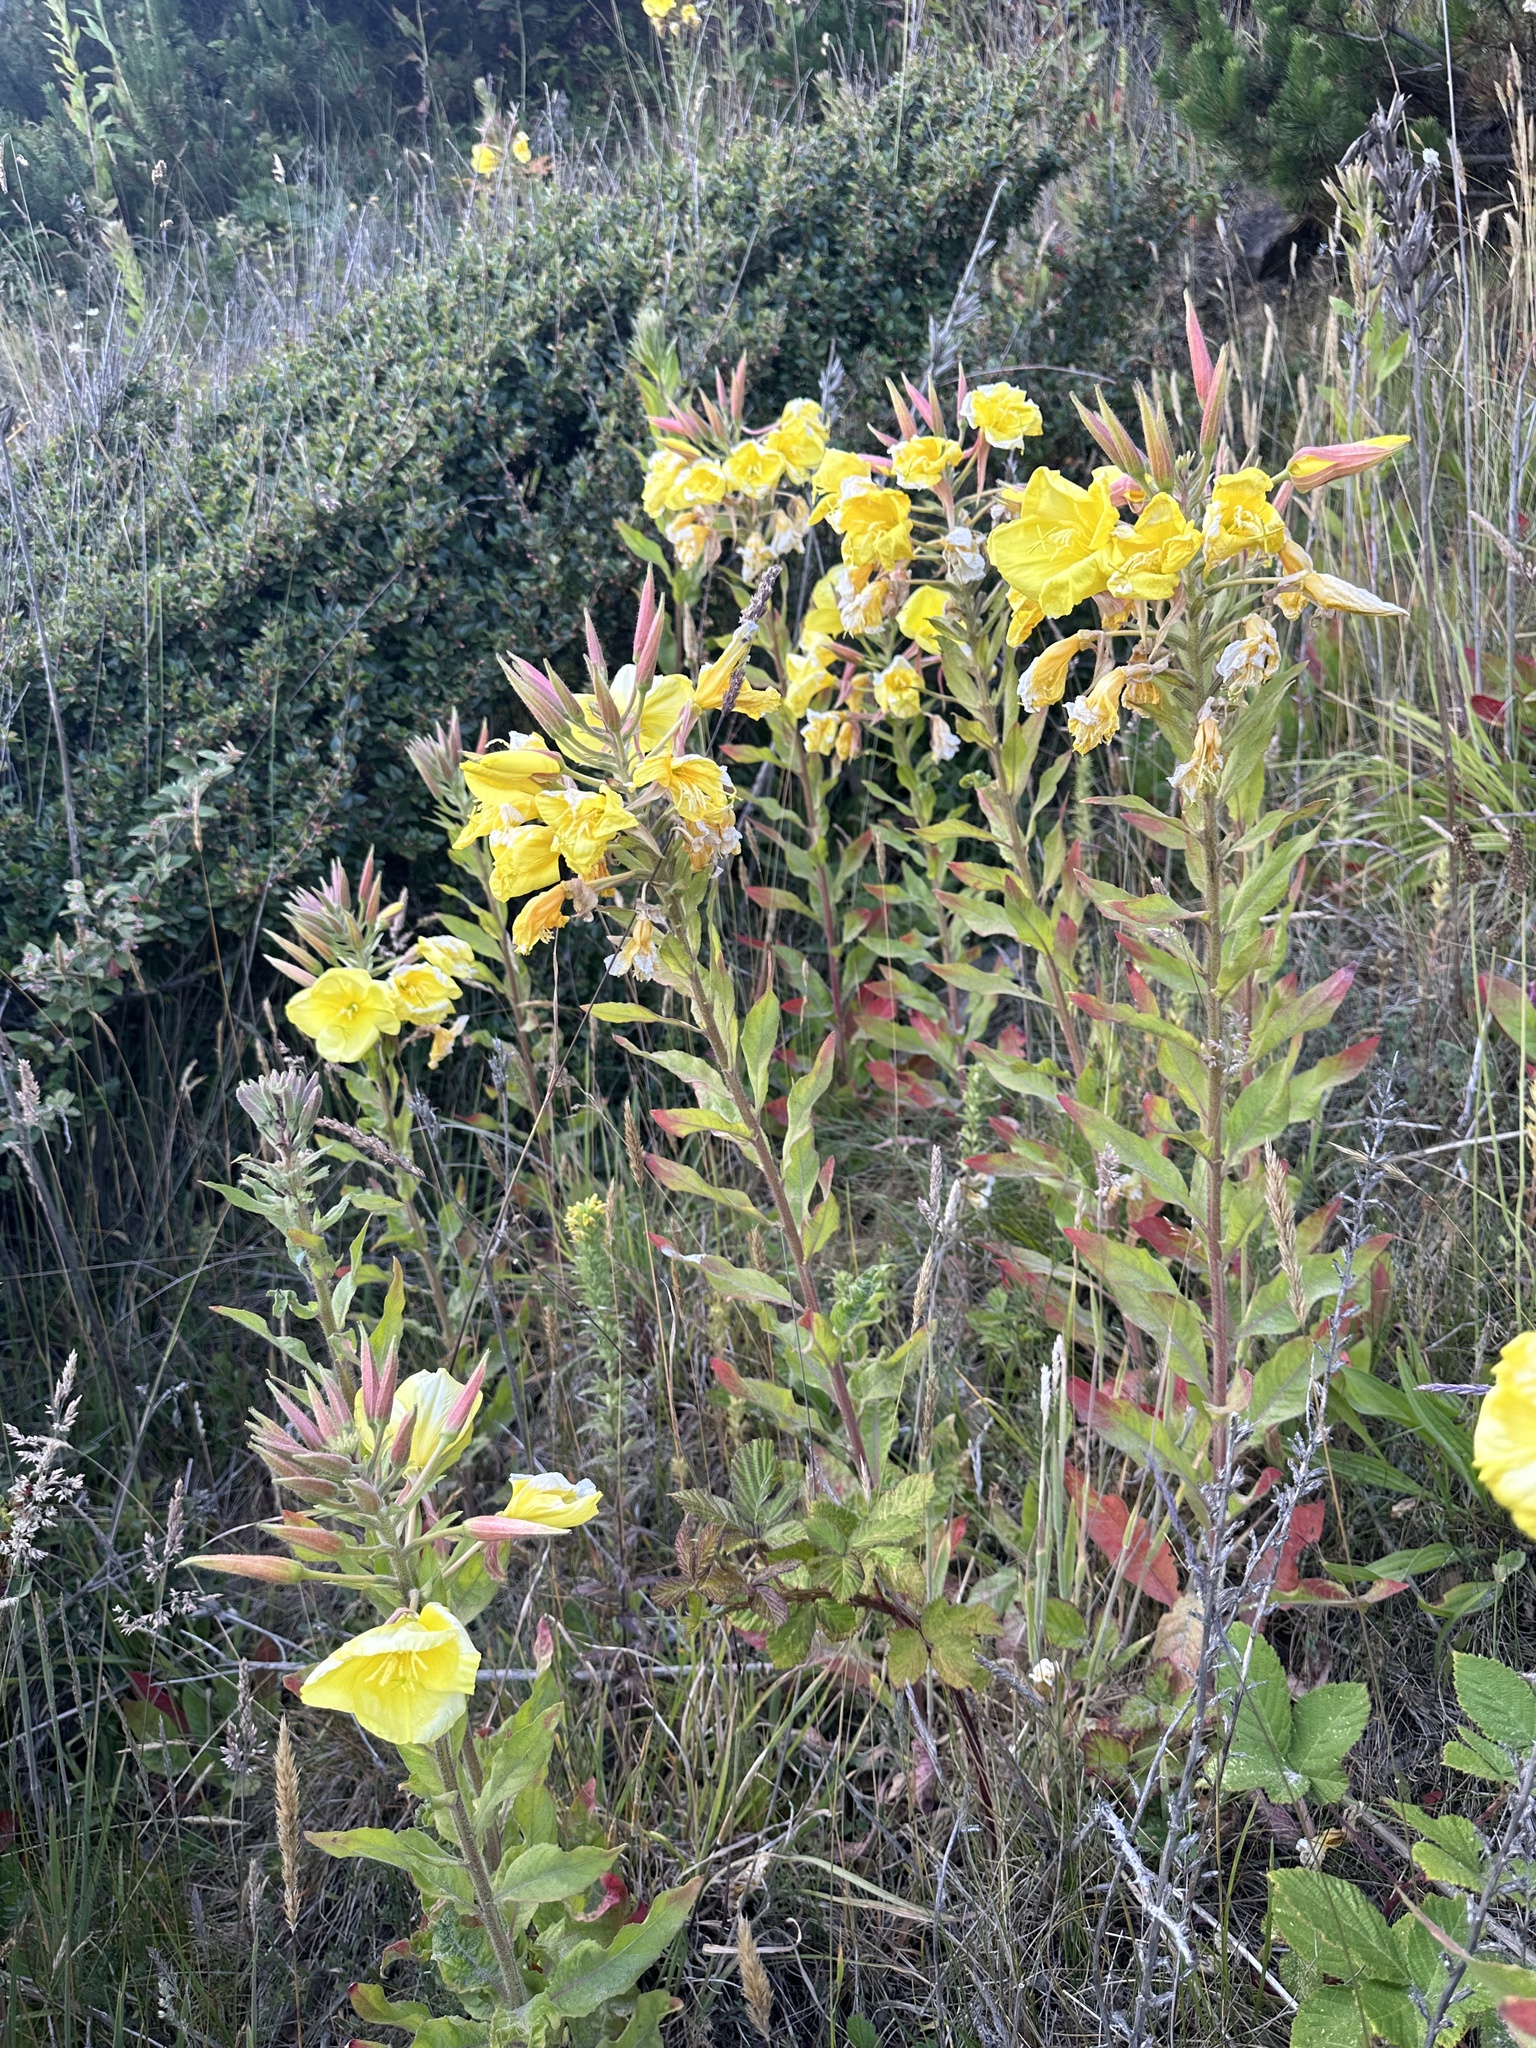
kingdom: Plantae
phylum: Tracheophyta
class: Magnoliopsida
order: Myrtales
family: Onagraceae
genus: Oenothera
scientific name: Oenothera glazioviana
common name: Large-flowered evening-primrose
